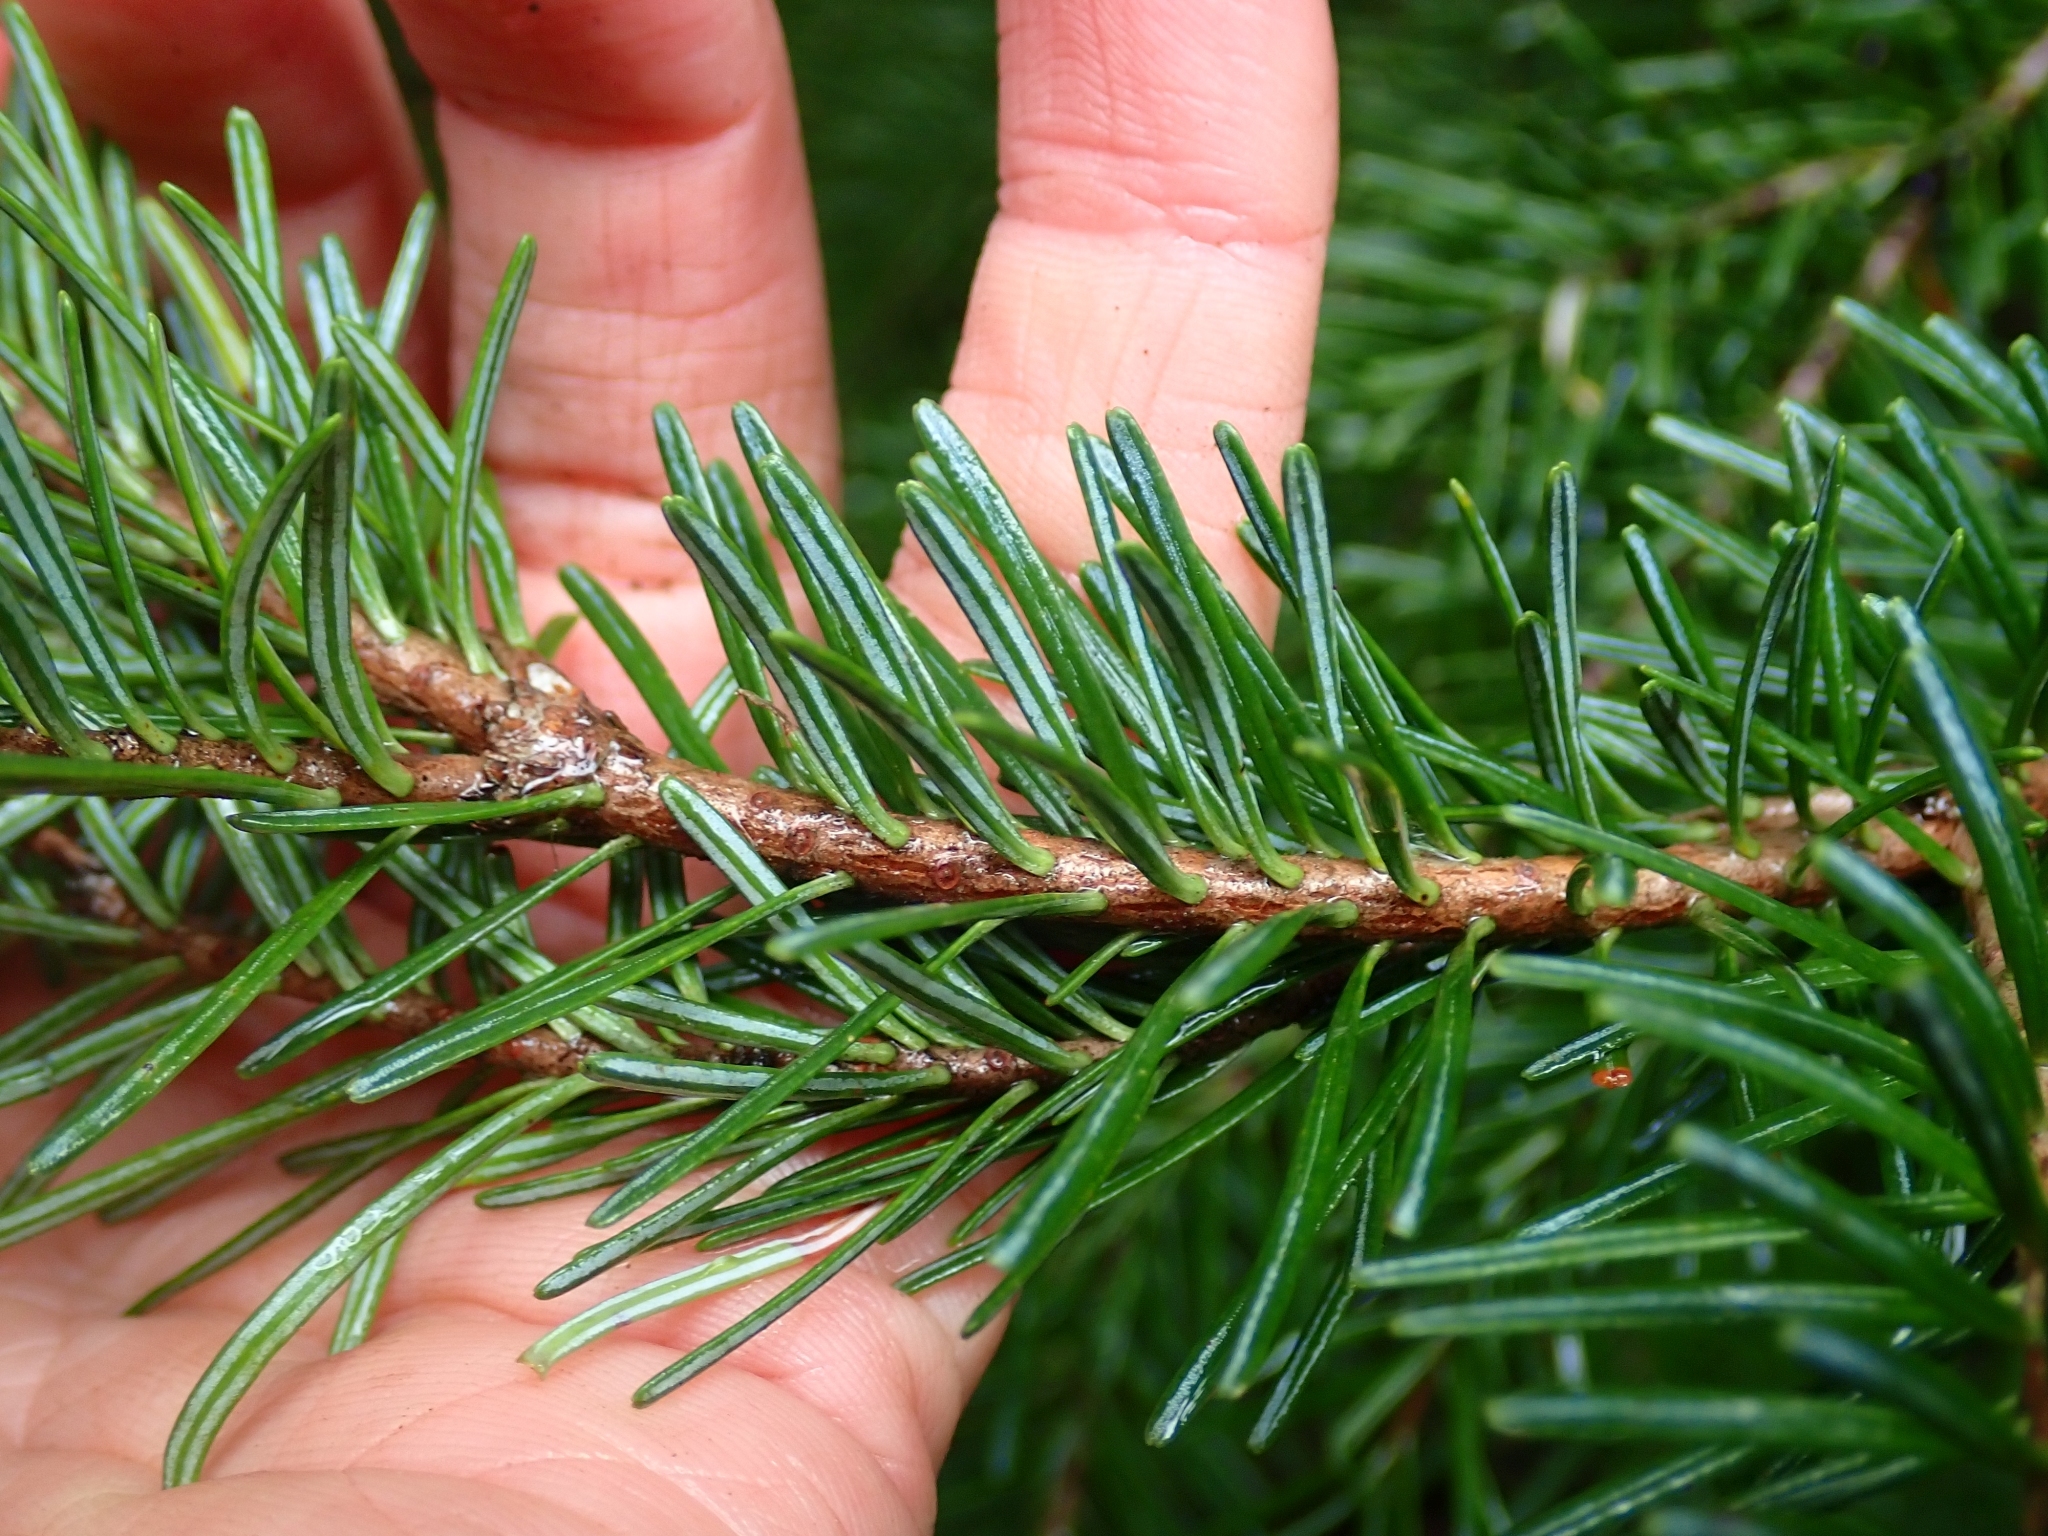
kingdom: Plantae
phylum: Tracheophyta
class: Pinopsida
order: Pinales
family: Pinaceae
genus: Abies
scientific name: Abies lasiocarpa
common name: Subalpine fir
